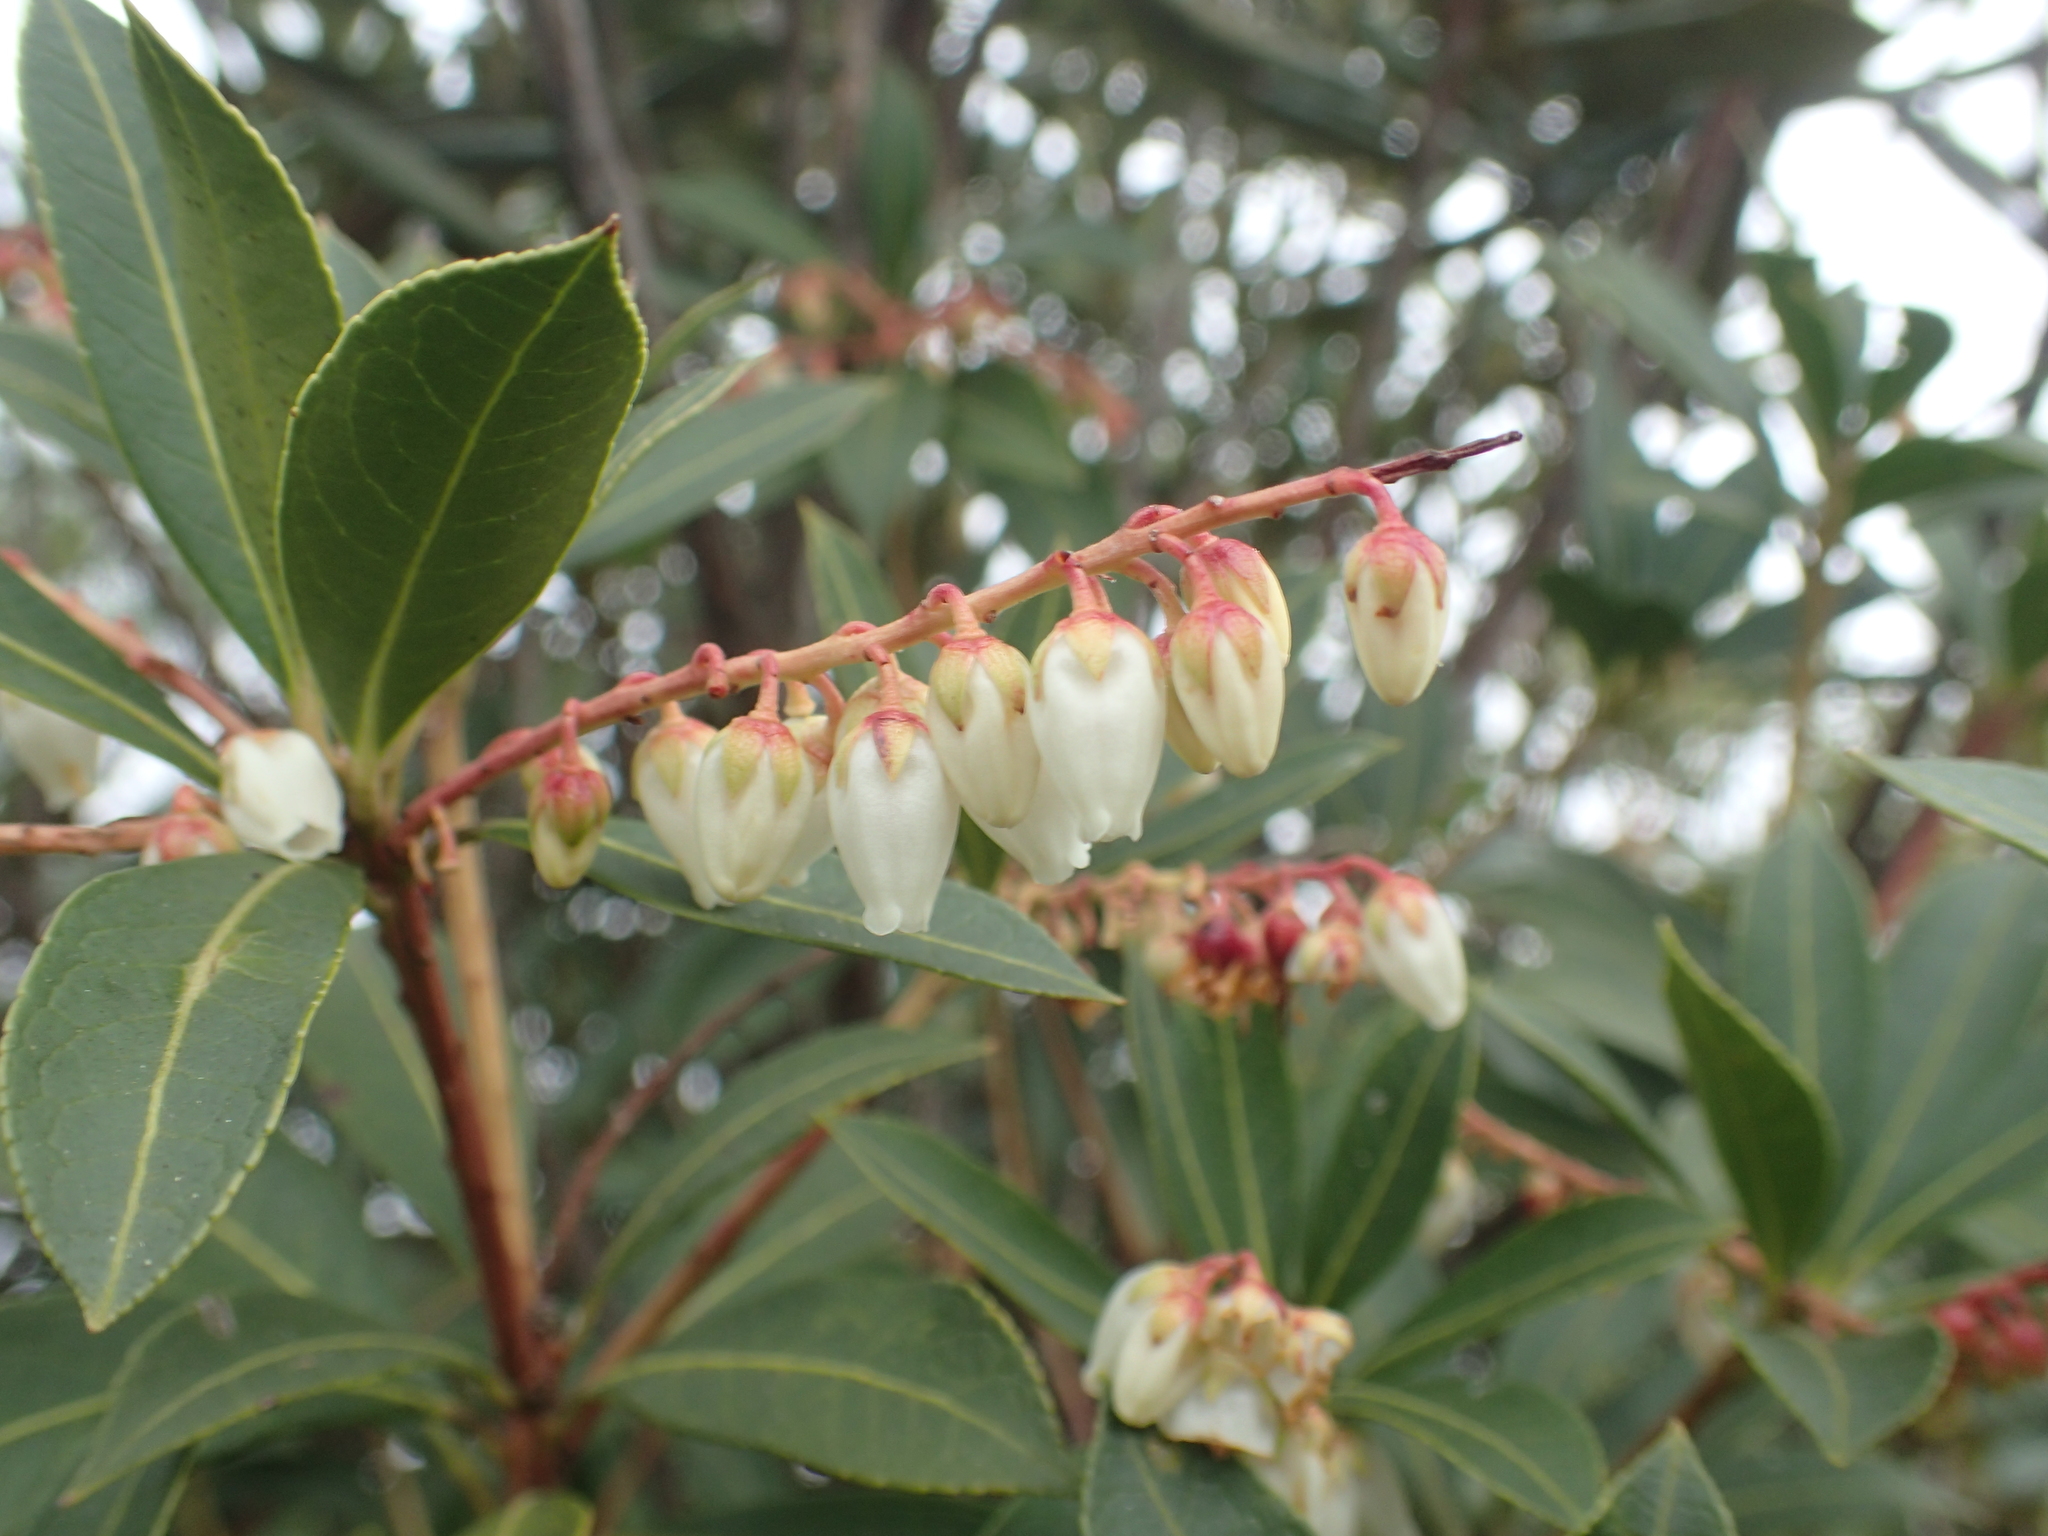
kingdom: Plantae
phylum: Tracheophyta
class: Magnoliopsida
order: Ericales
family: Ericaceae
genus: Pieris
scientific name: Pieris japonica
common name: Japanese pieris
